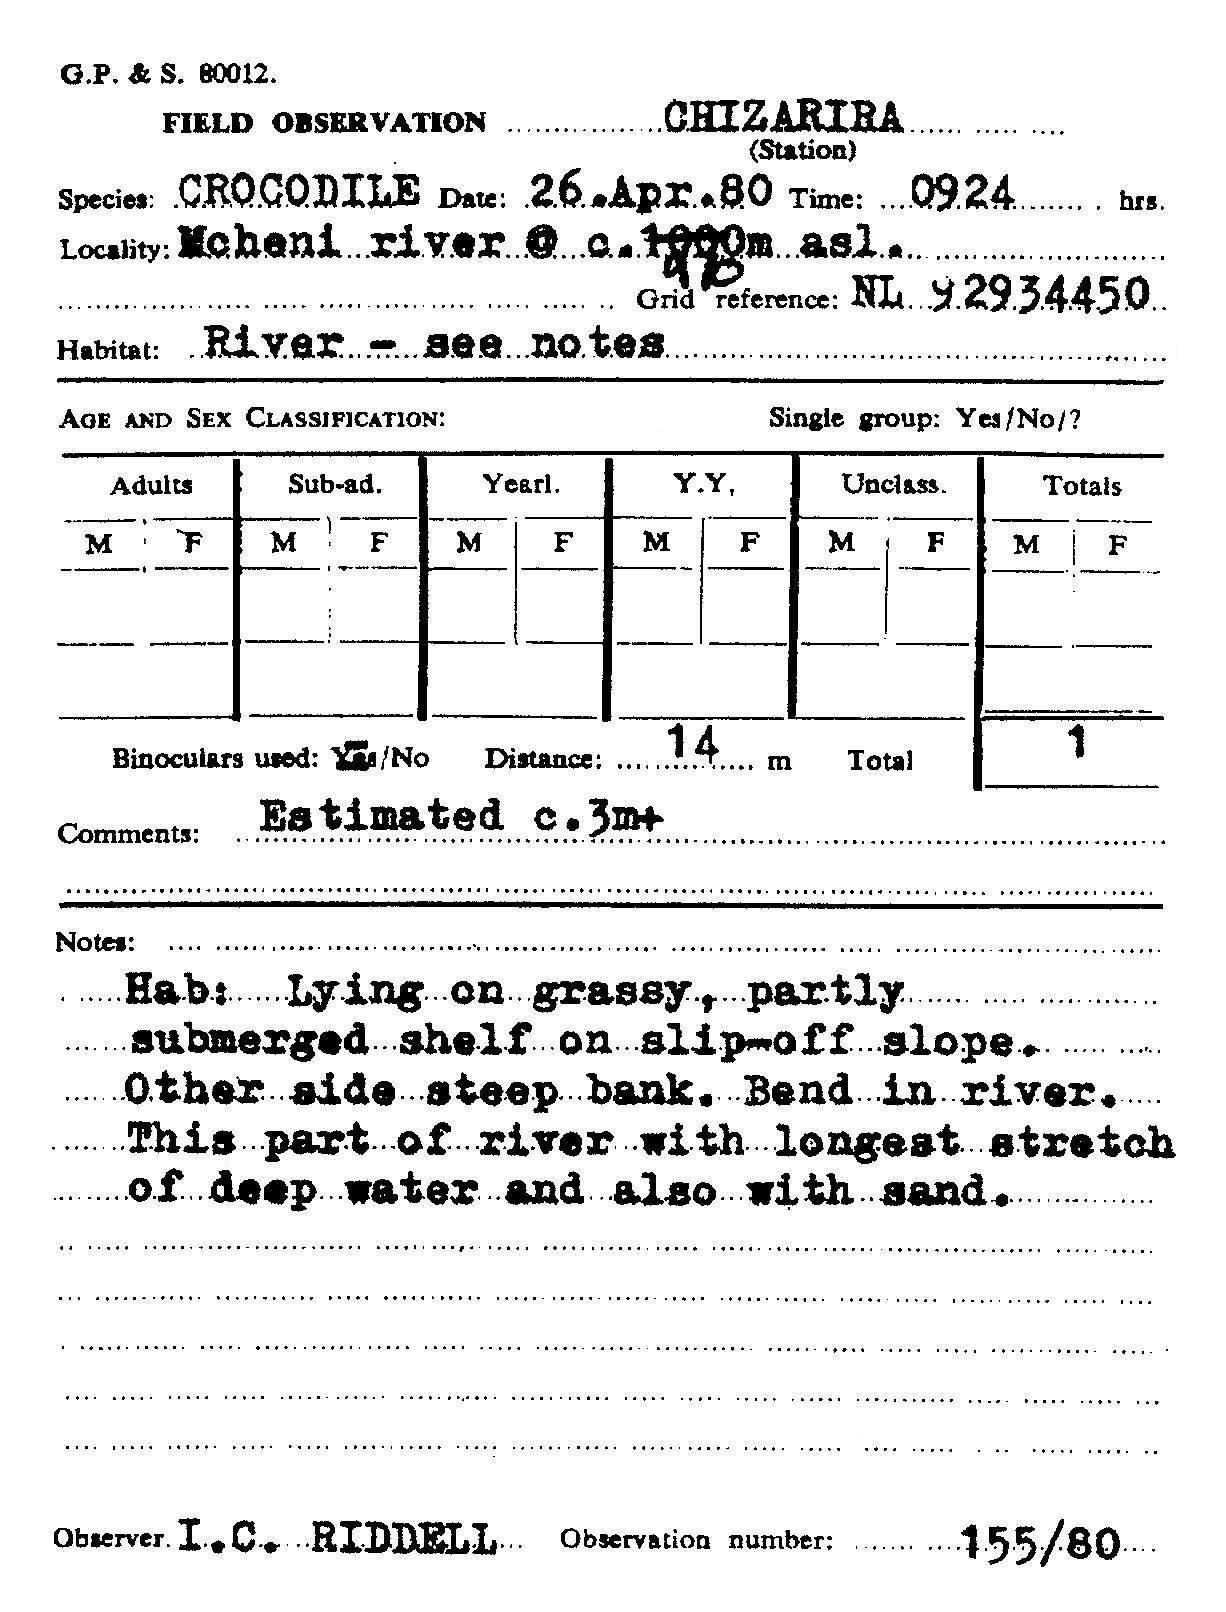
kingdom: Animalia
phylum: Chordata
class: Crocodylia
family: Crocodylidae
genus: Crocodylus
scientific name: Crocodylus niloticus
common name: Nile crocodile
